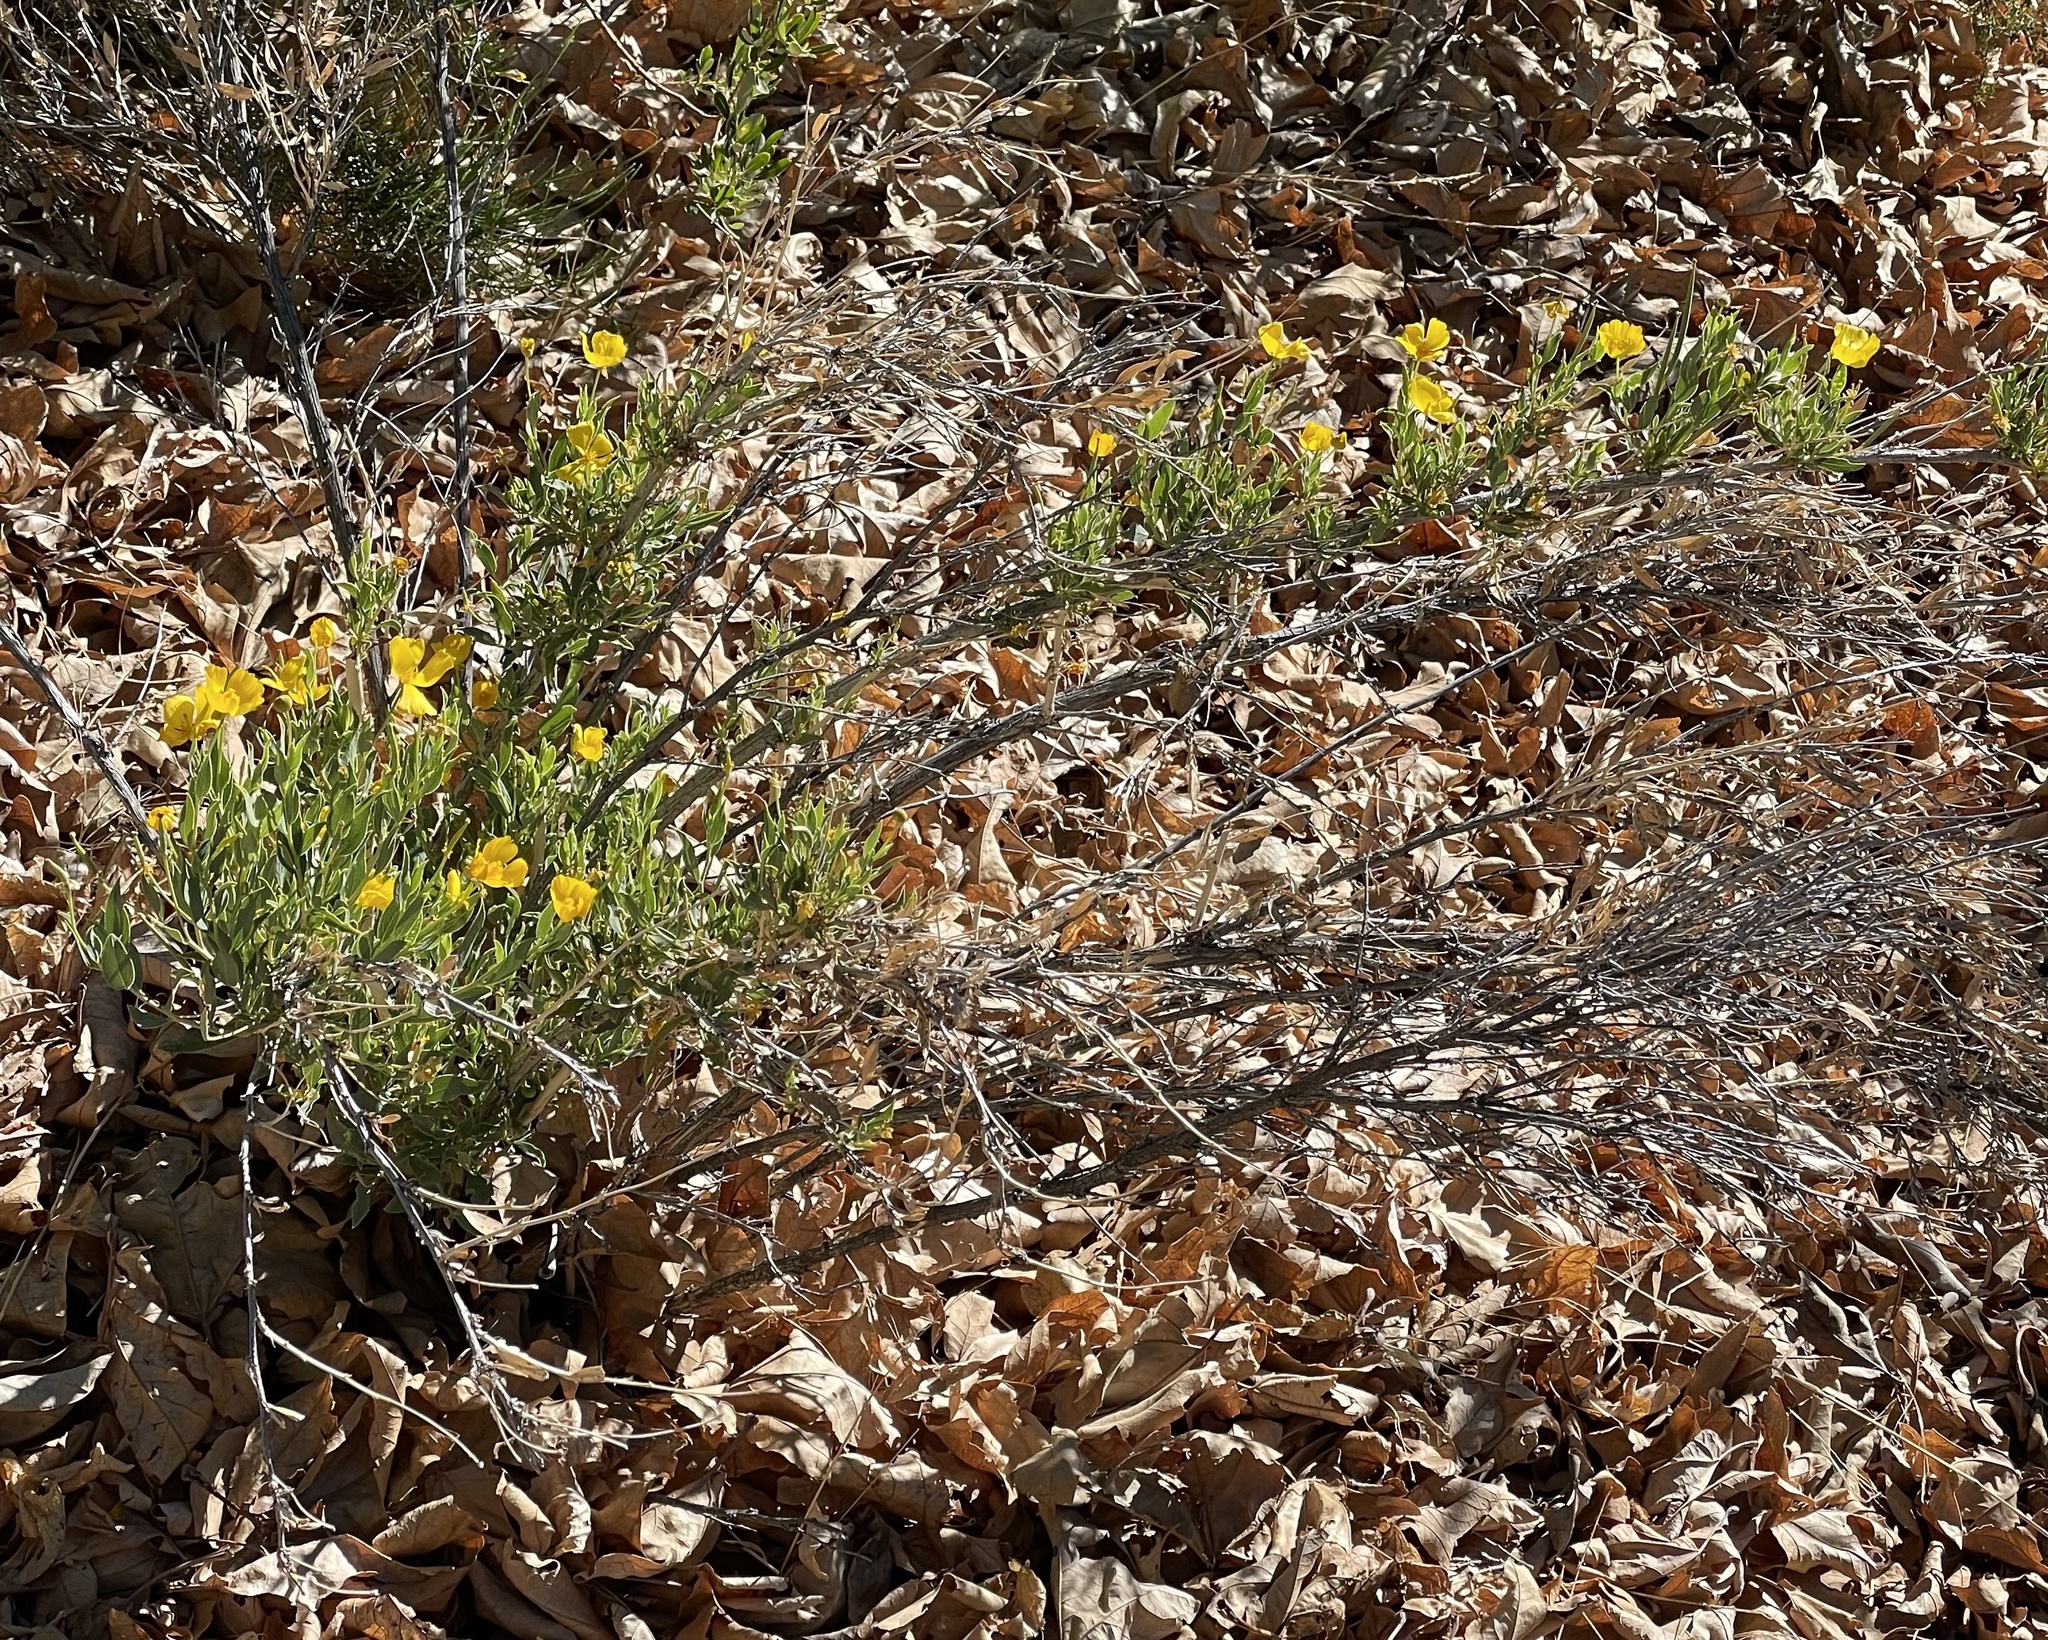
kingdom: Plantae
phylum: Tracheophyta
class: Magnoliopsida
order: Ranunculales
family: Papaveraceae
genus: Dendromecon
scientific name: Dendromecon rigida
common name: Tree poppy
